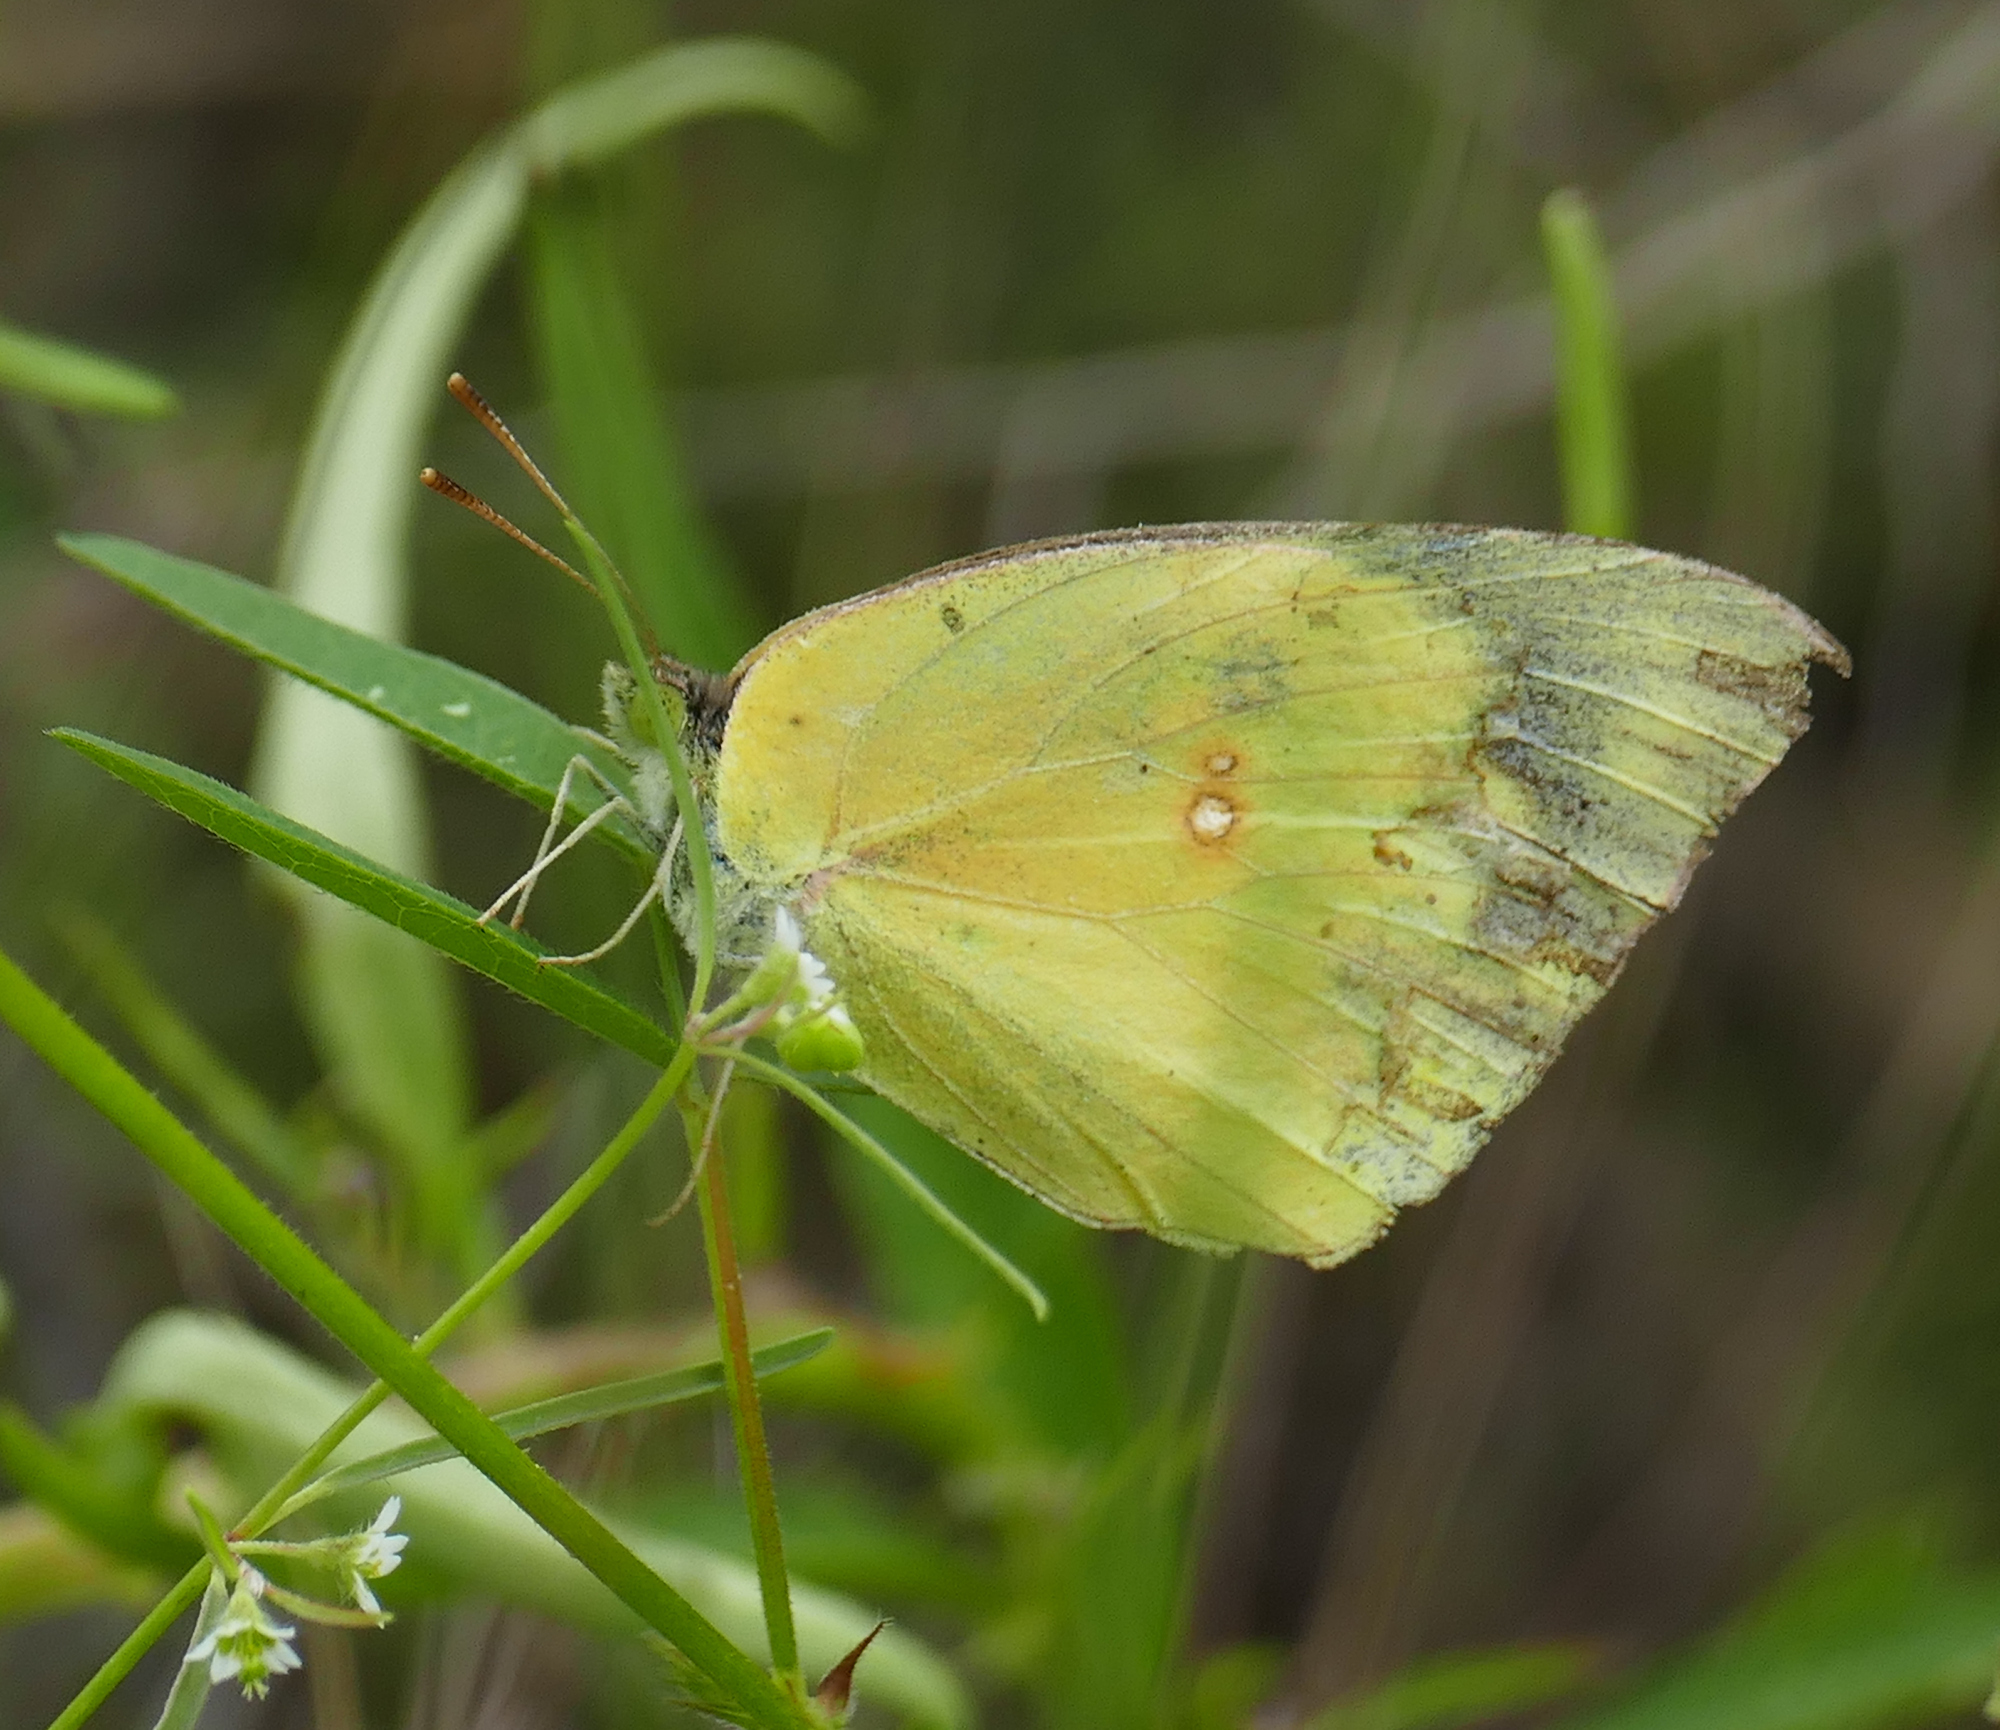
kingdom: Animalia
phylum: Arthropoda
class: Insecta
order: Lepidoptera
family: Pieridae
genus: Zerene
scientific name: Zerene cesonia
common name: Southern dogface
